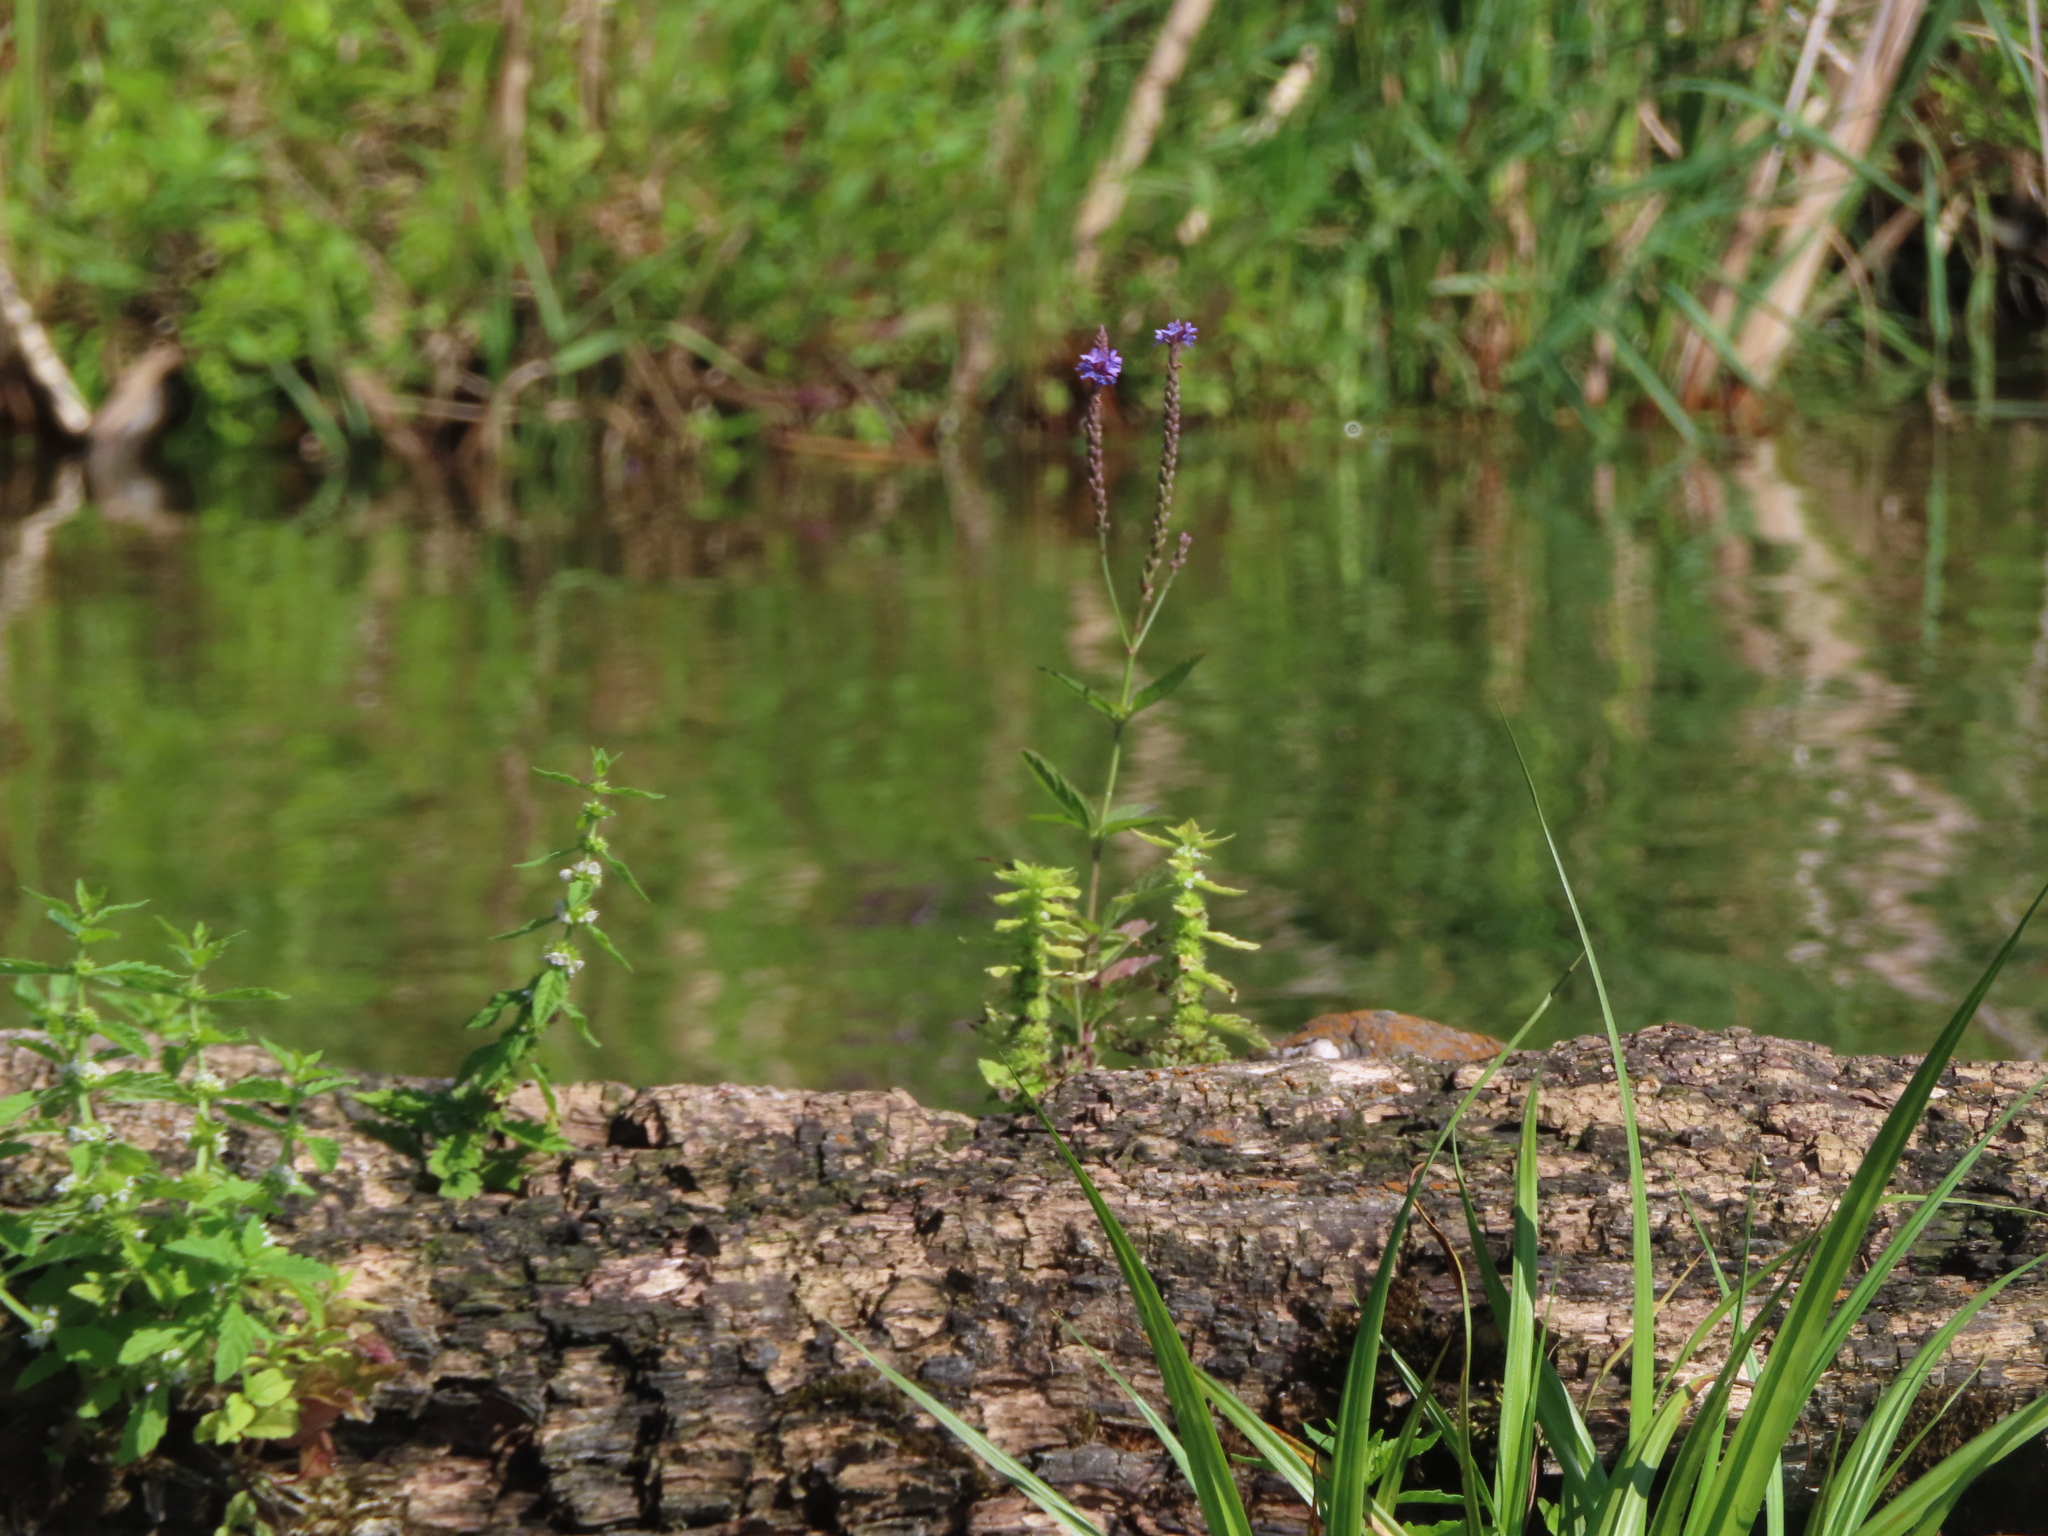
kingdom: Plantae
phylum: Tracheophyta
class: Magnoliopsida
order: Lamiales
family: Verbenaceae
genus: Verbena
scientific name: Verbena hastata
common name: American blue vervain
